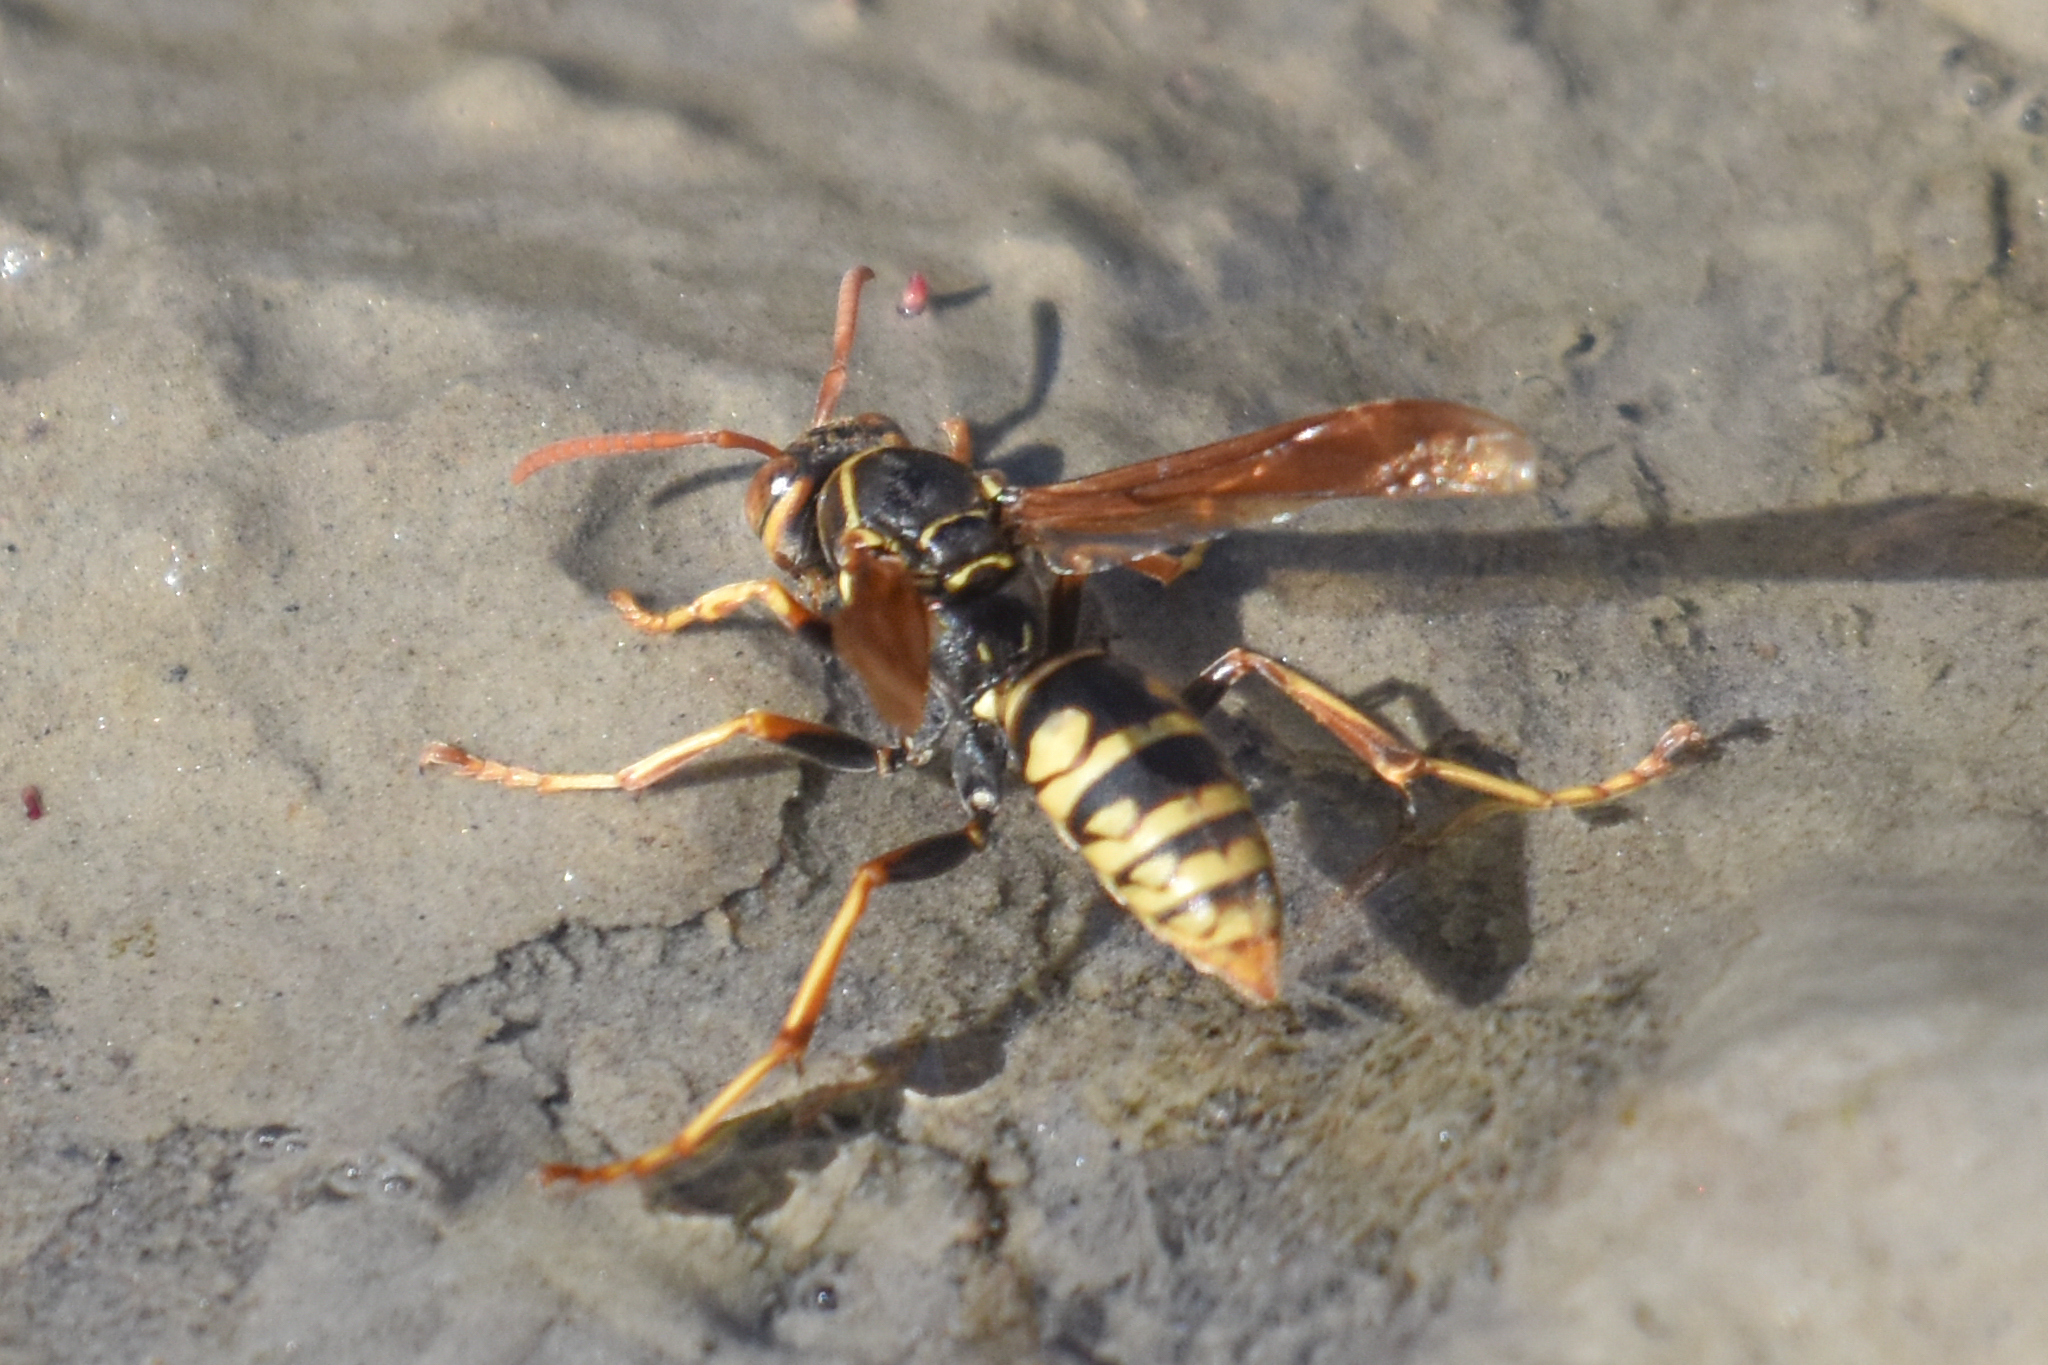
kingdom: Animalia
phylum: Arthropoda
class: Insecta
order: Hymenoptera
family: Eumenidae
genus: Polistes
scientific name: Polistes aurifer
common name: Paper wasp
